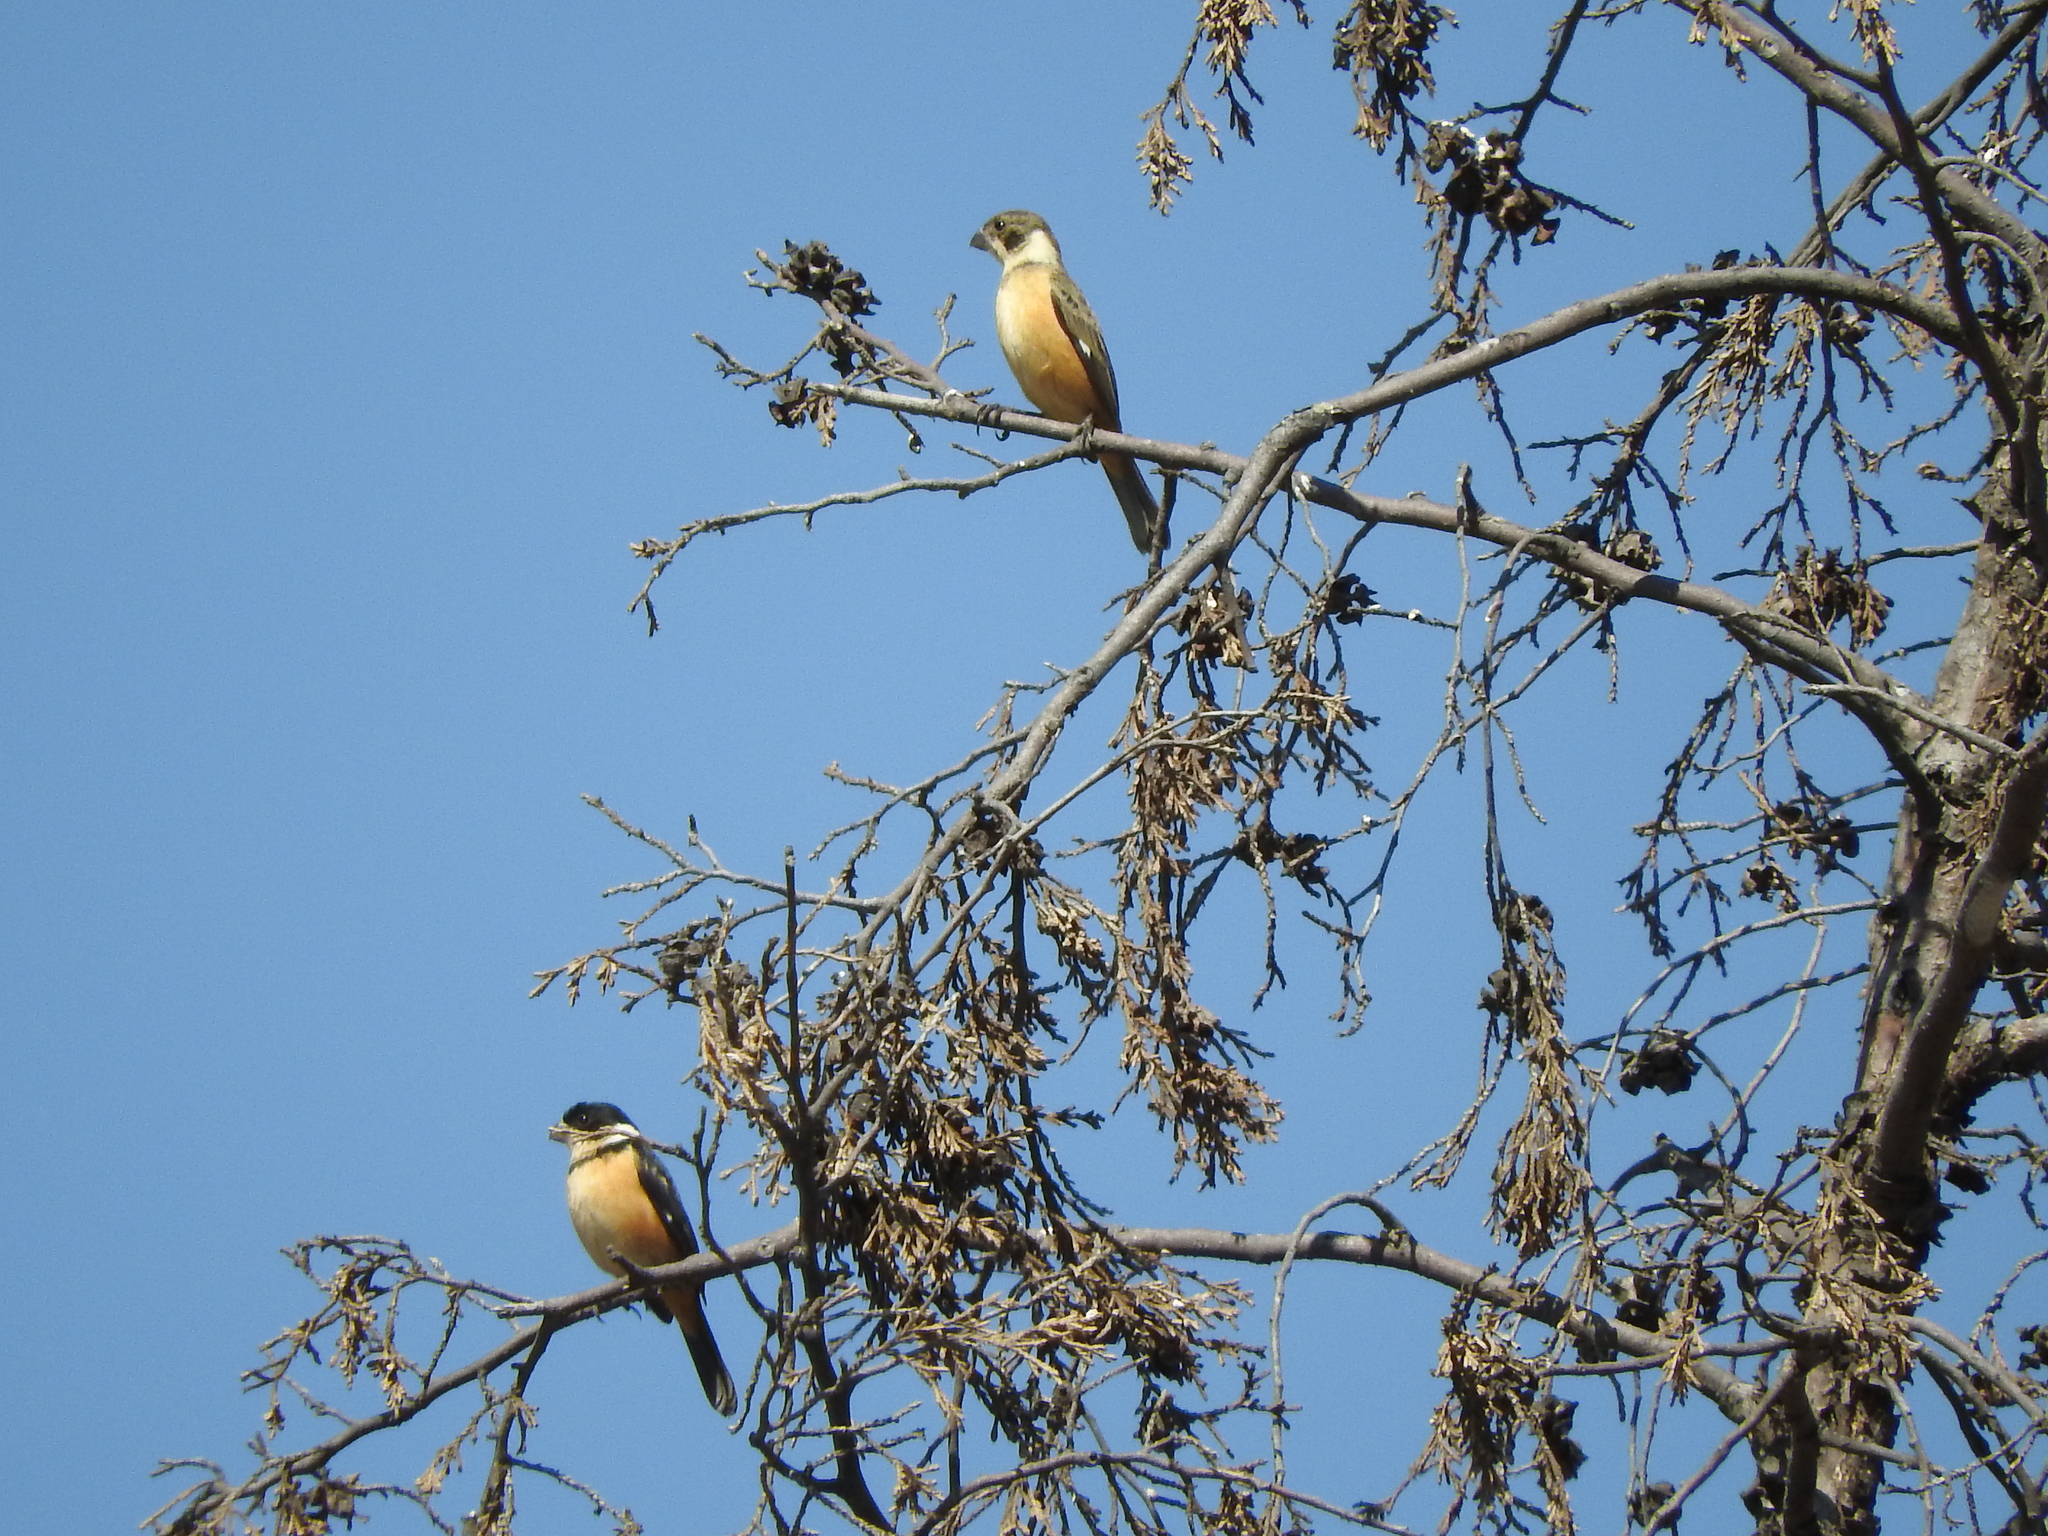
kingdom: Animalia
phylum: Chordata
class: Aves
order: Passeriformes
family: Thraupidae
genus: Sporophila
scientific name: Sporophila torqueola
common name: White-collared seedeater
